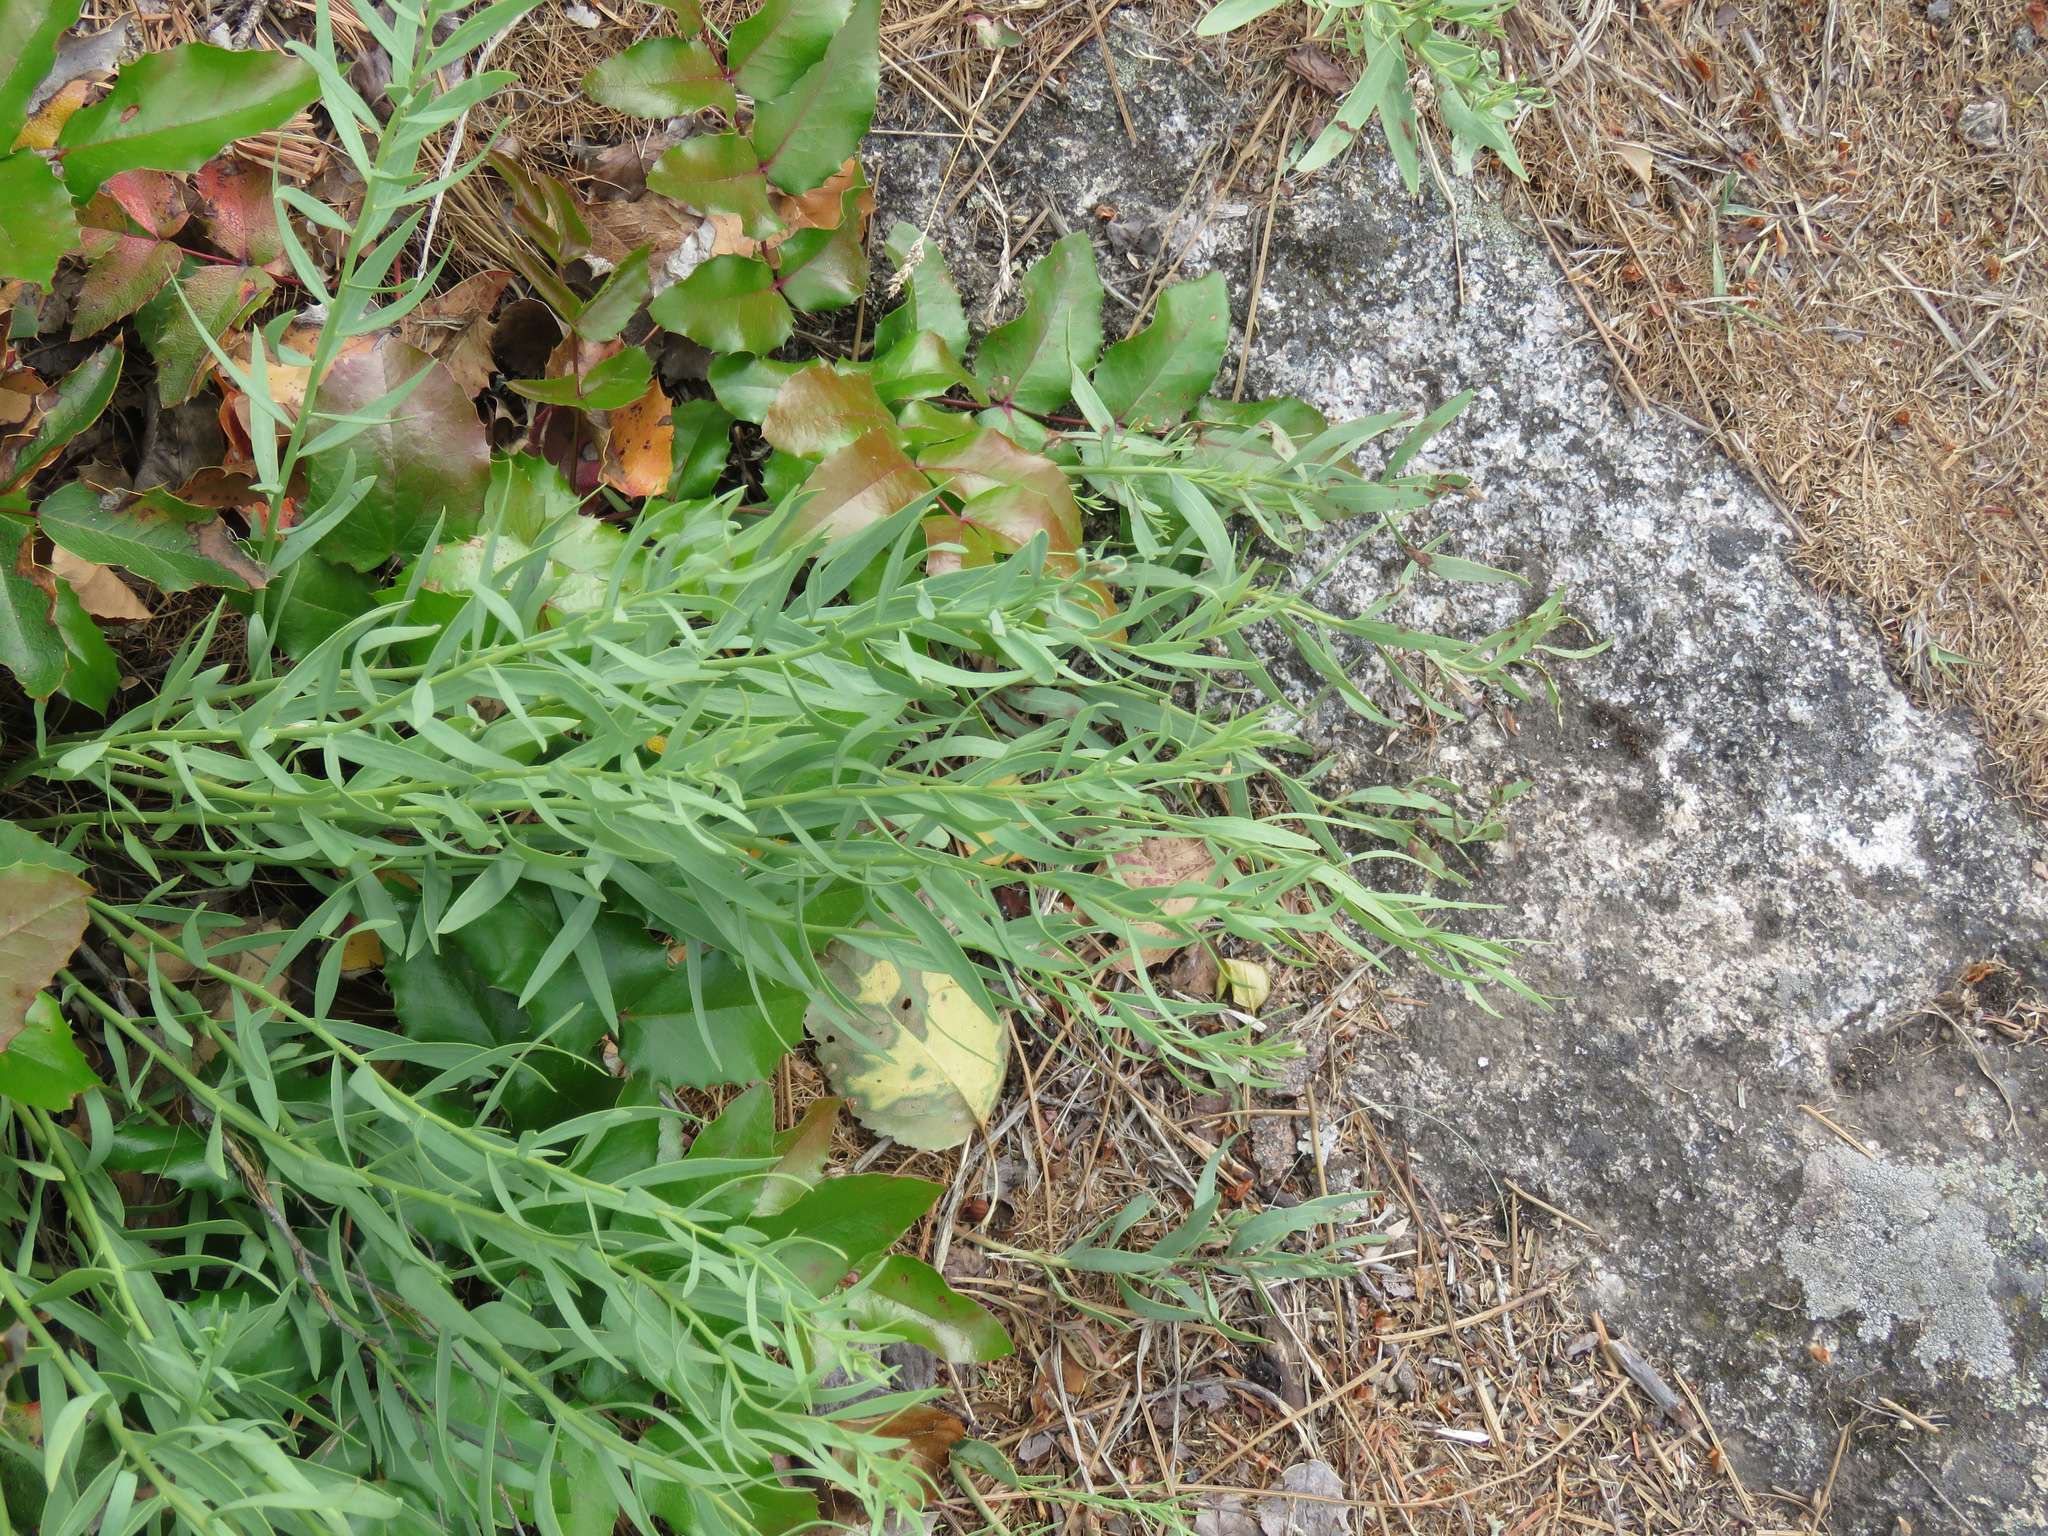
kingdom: Plantae
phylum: Tracheophyta
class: Magnoliopsida
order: Santalales
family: Comandraceae
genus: Comandra
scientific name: Comandra umbellata
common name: Bastard toadflax
